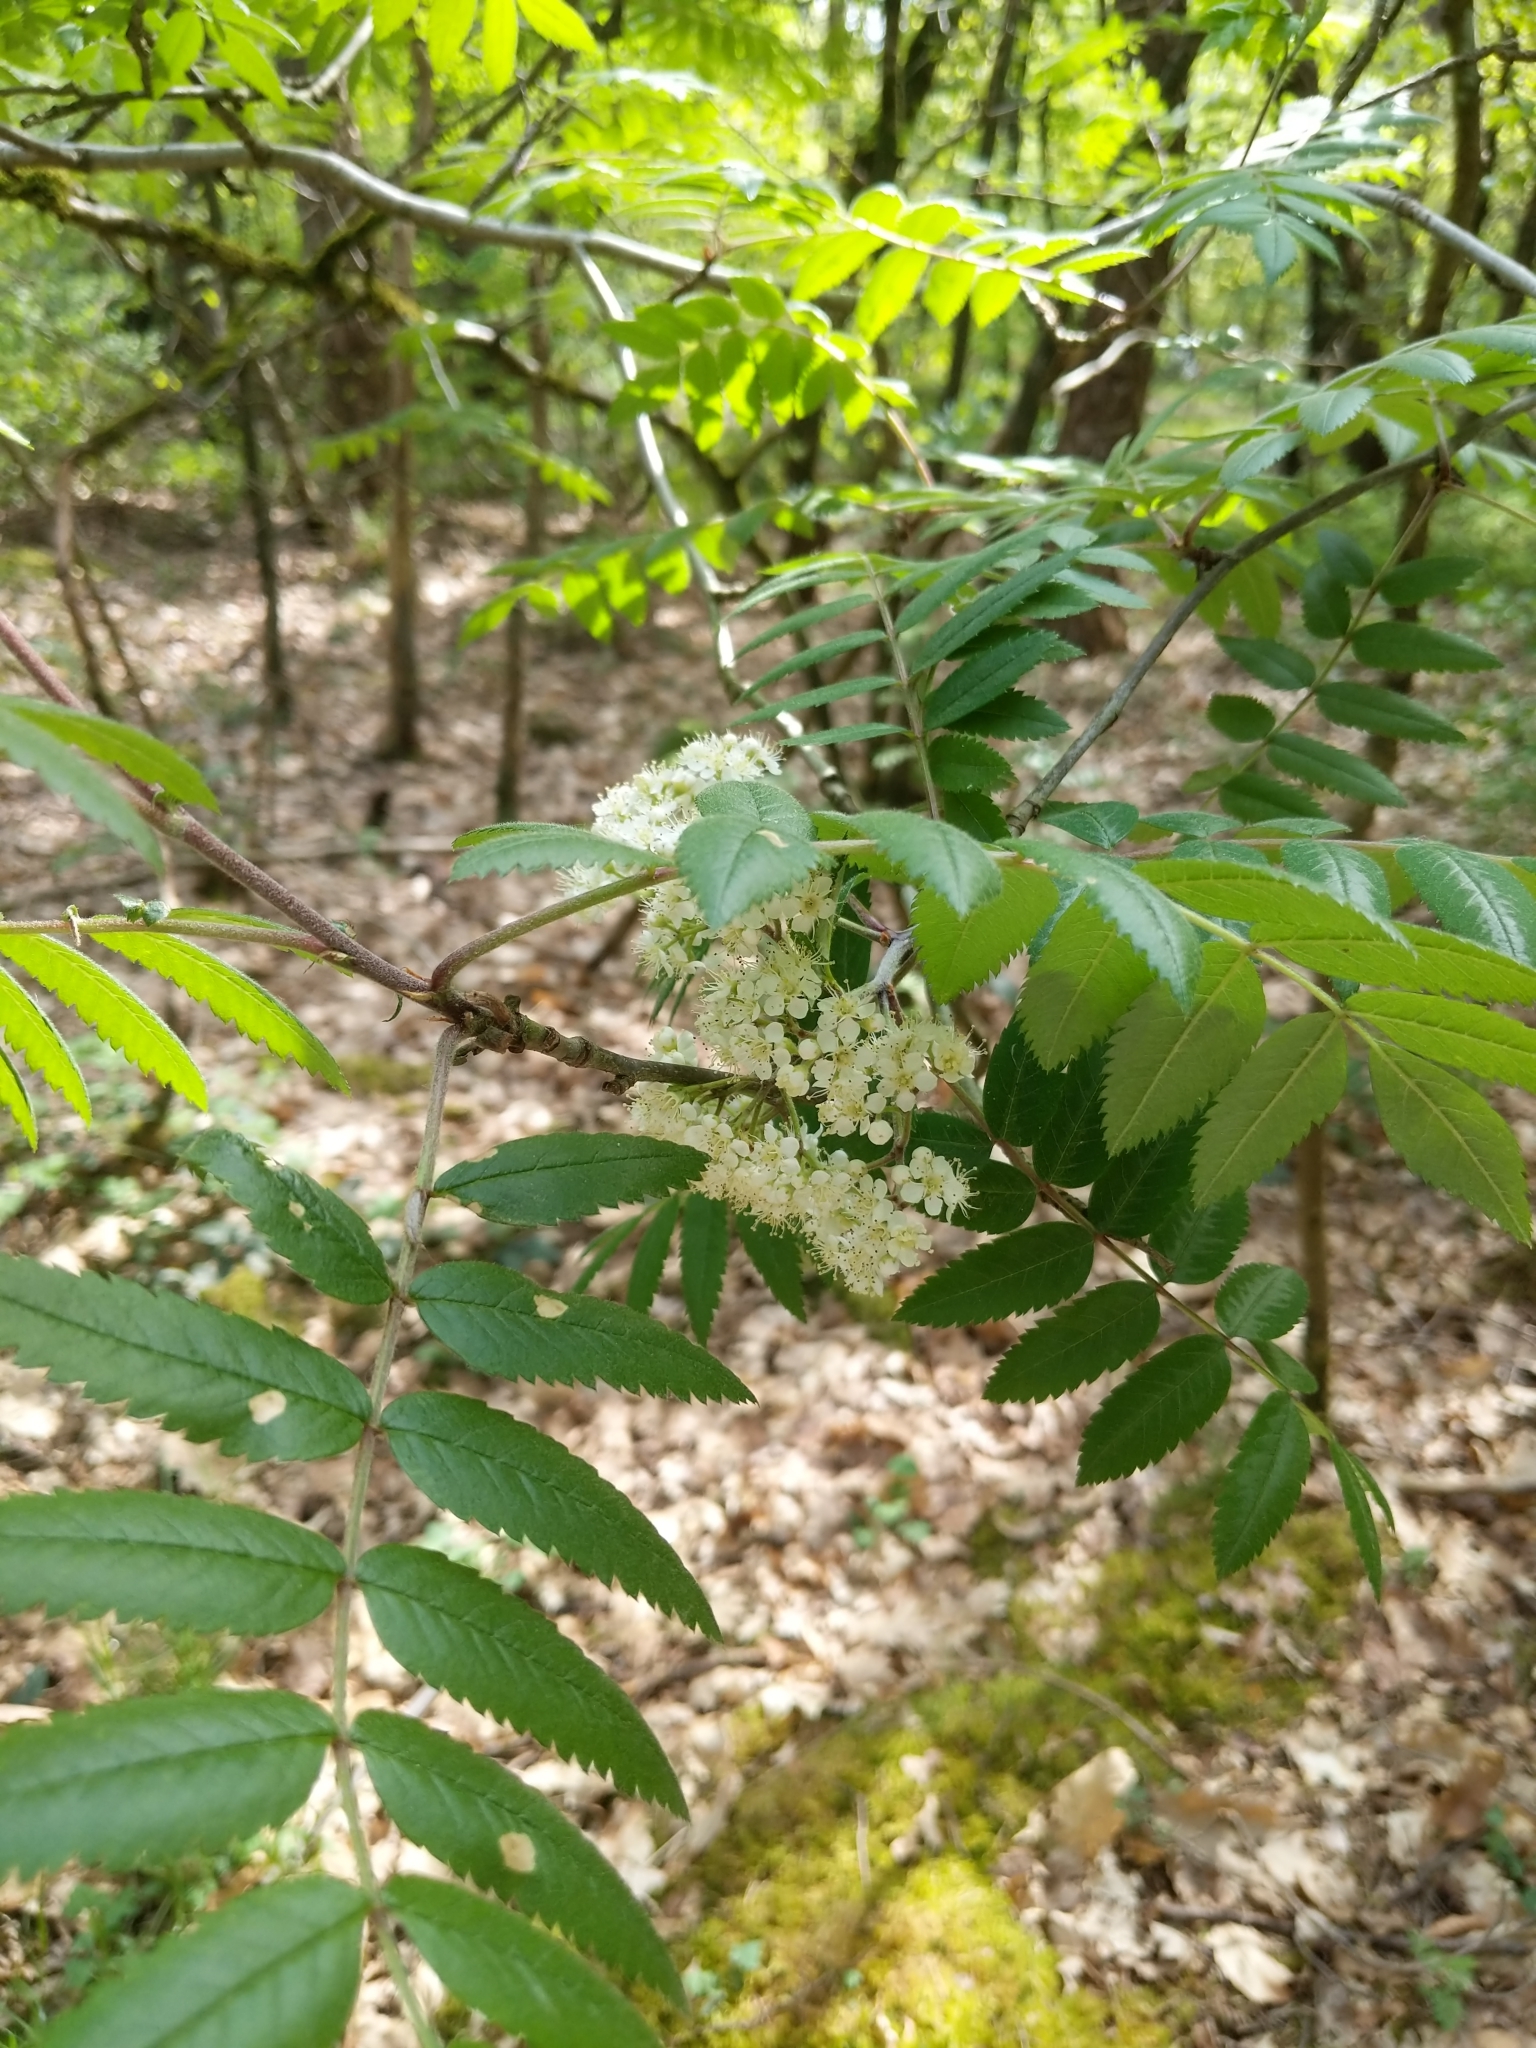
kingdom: Plantae
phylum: Tracheophyta
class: Magnoliopsida
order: Rosales
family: Rosaceae
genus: Sorbus
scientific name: Sorbus aucuparia
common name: Rowan
